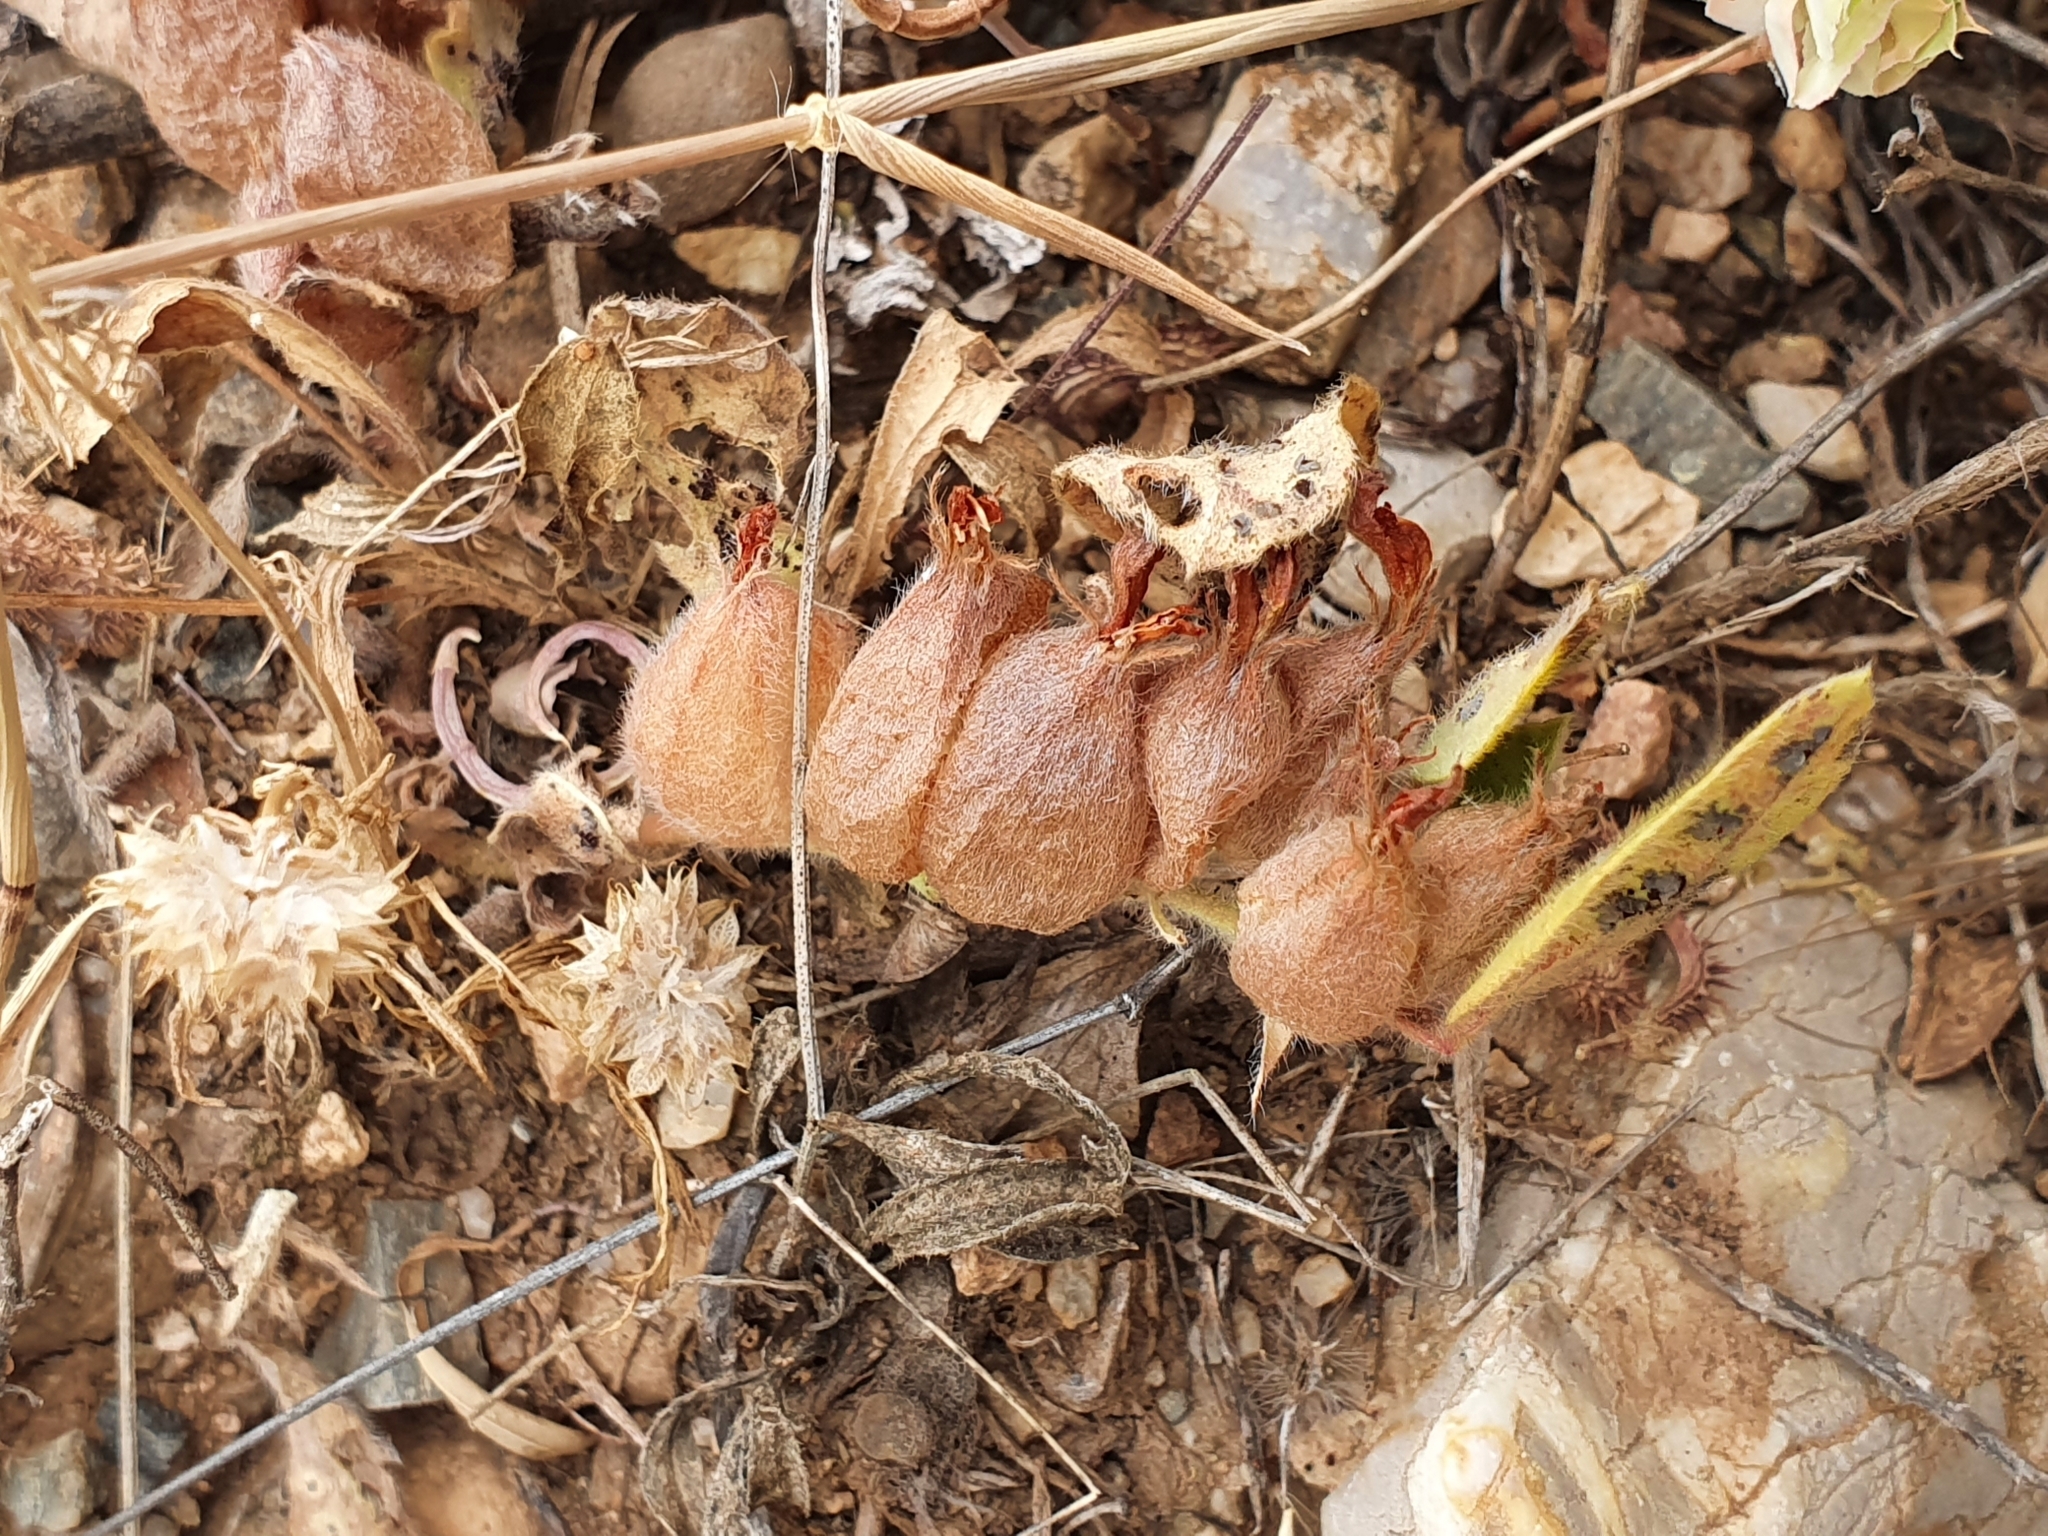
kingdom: Plantae
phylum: Tracheophyta
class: Magnoliopsida
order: Fabales
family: Fabaceae
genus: Tripodion
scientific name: Tripodion tetraphyllum
